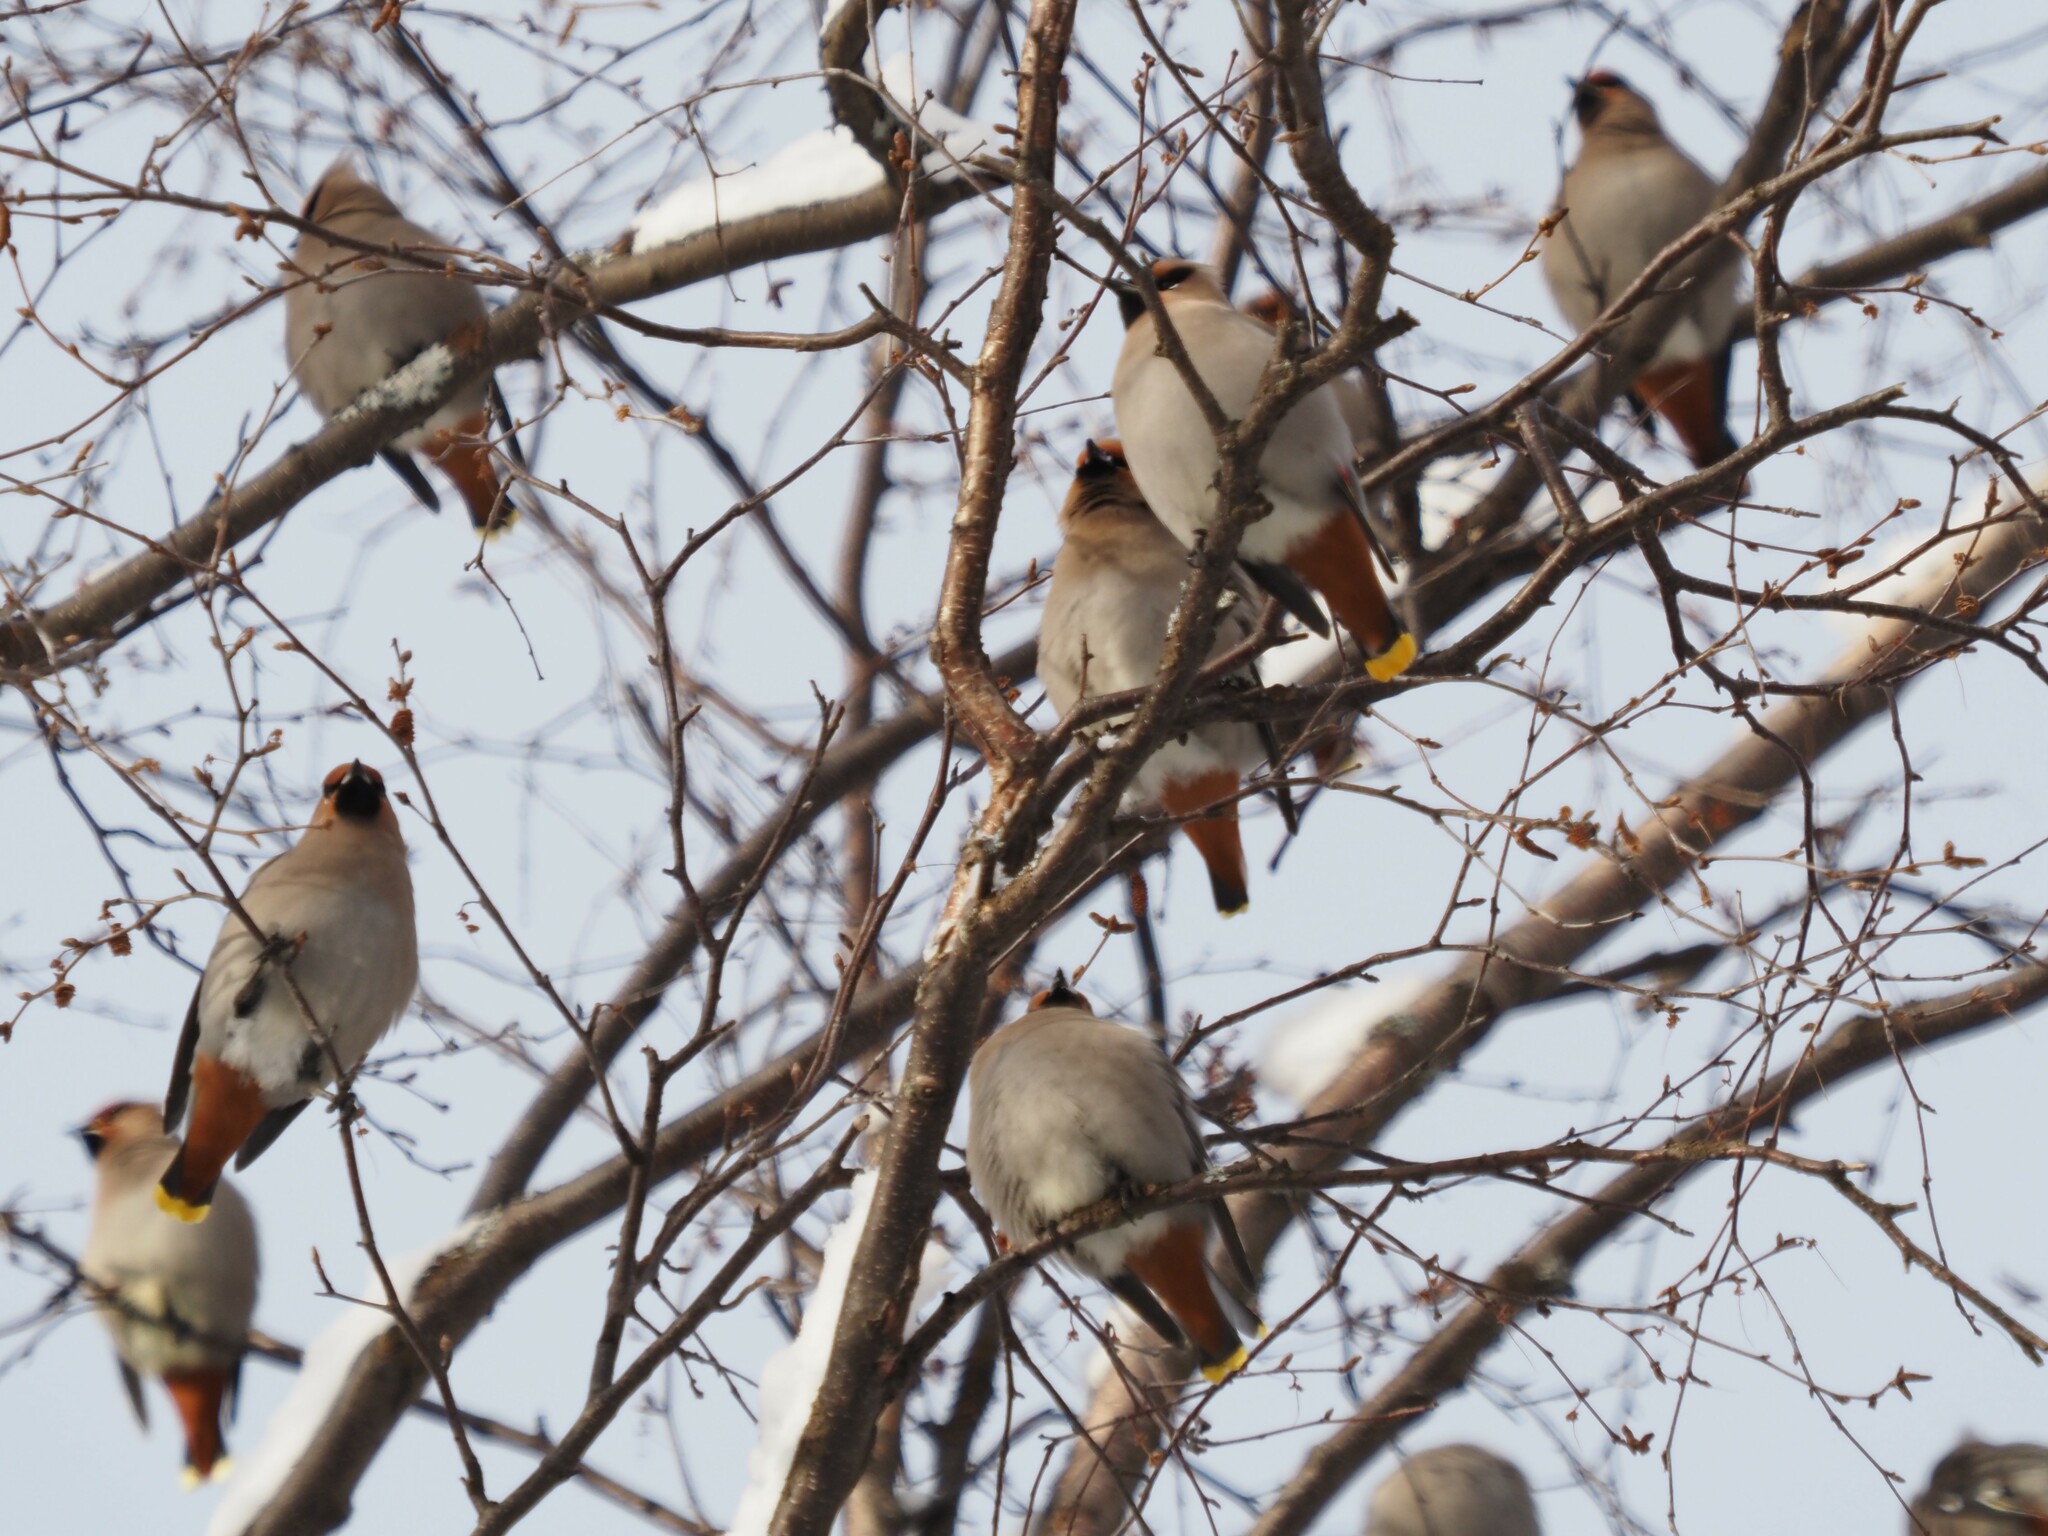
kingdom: Animalia
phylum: Chordata
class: Aves
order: Passeriformes
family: Bombycillidae
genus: Bombycilla
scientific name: Bombycilla garrulus
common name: Bohemian waxwing
